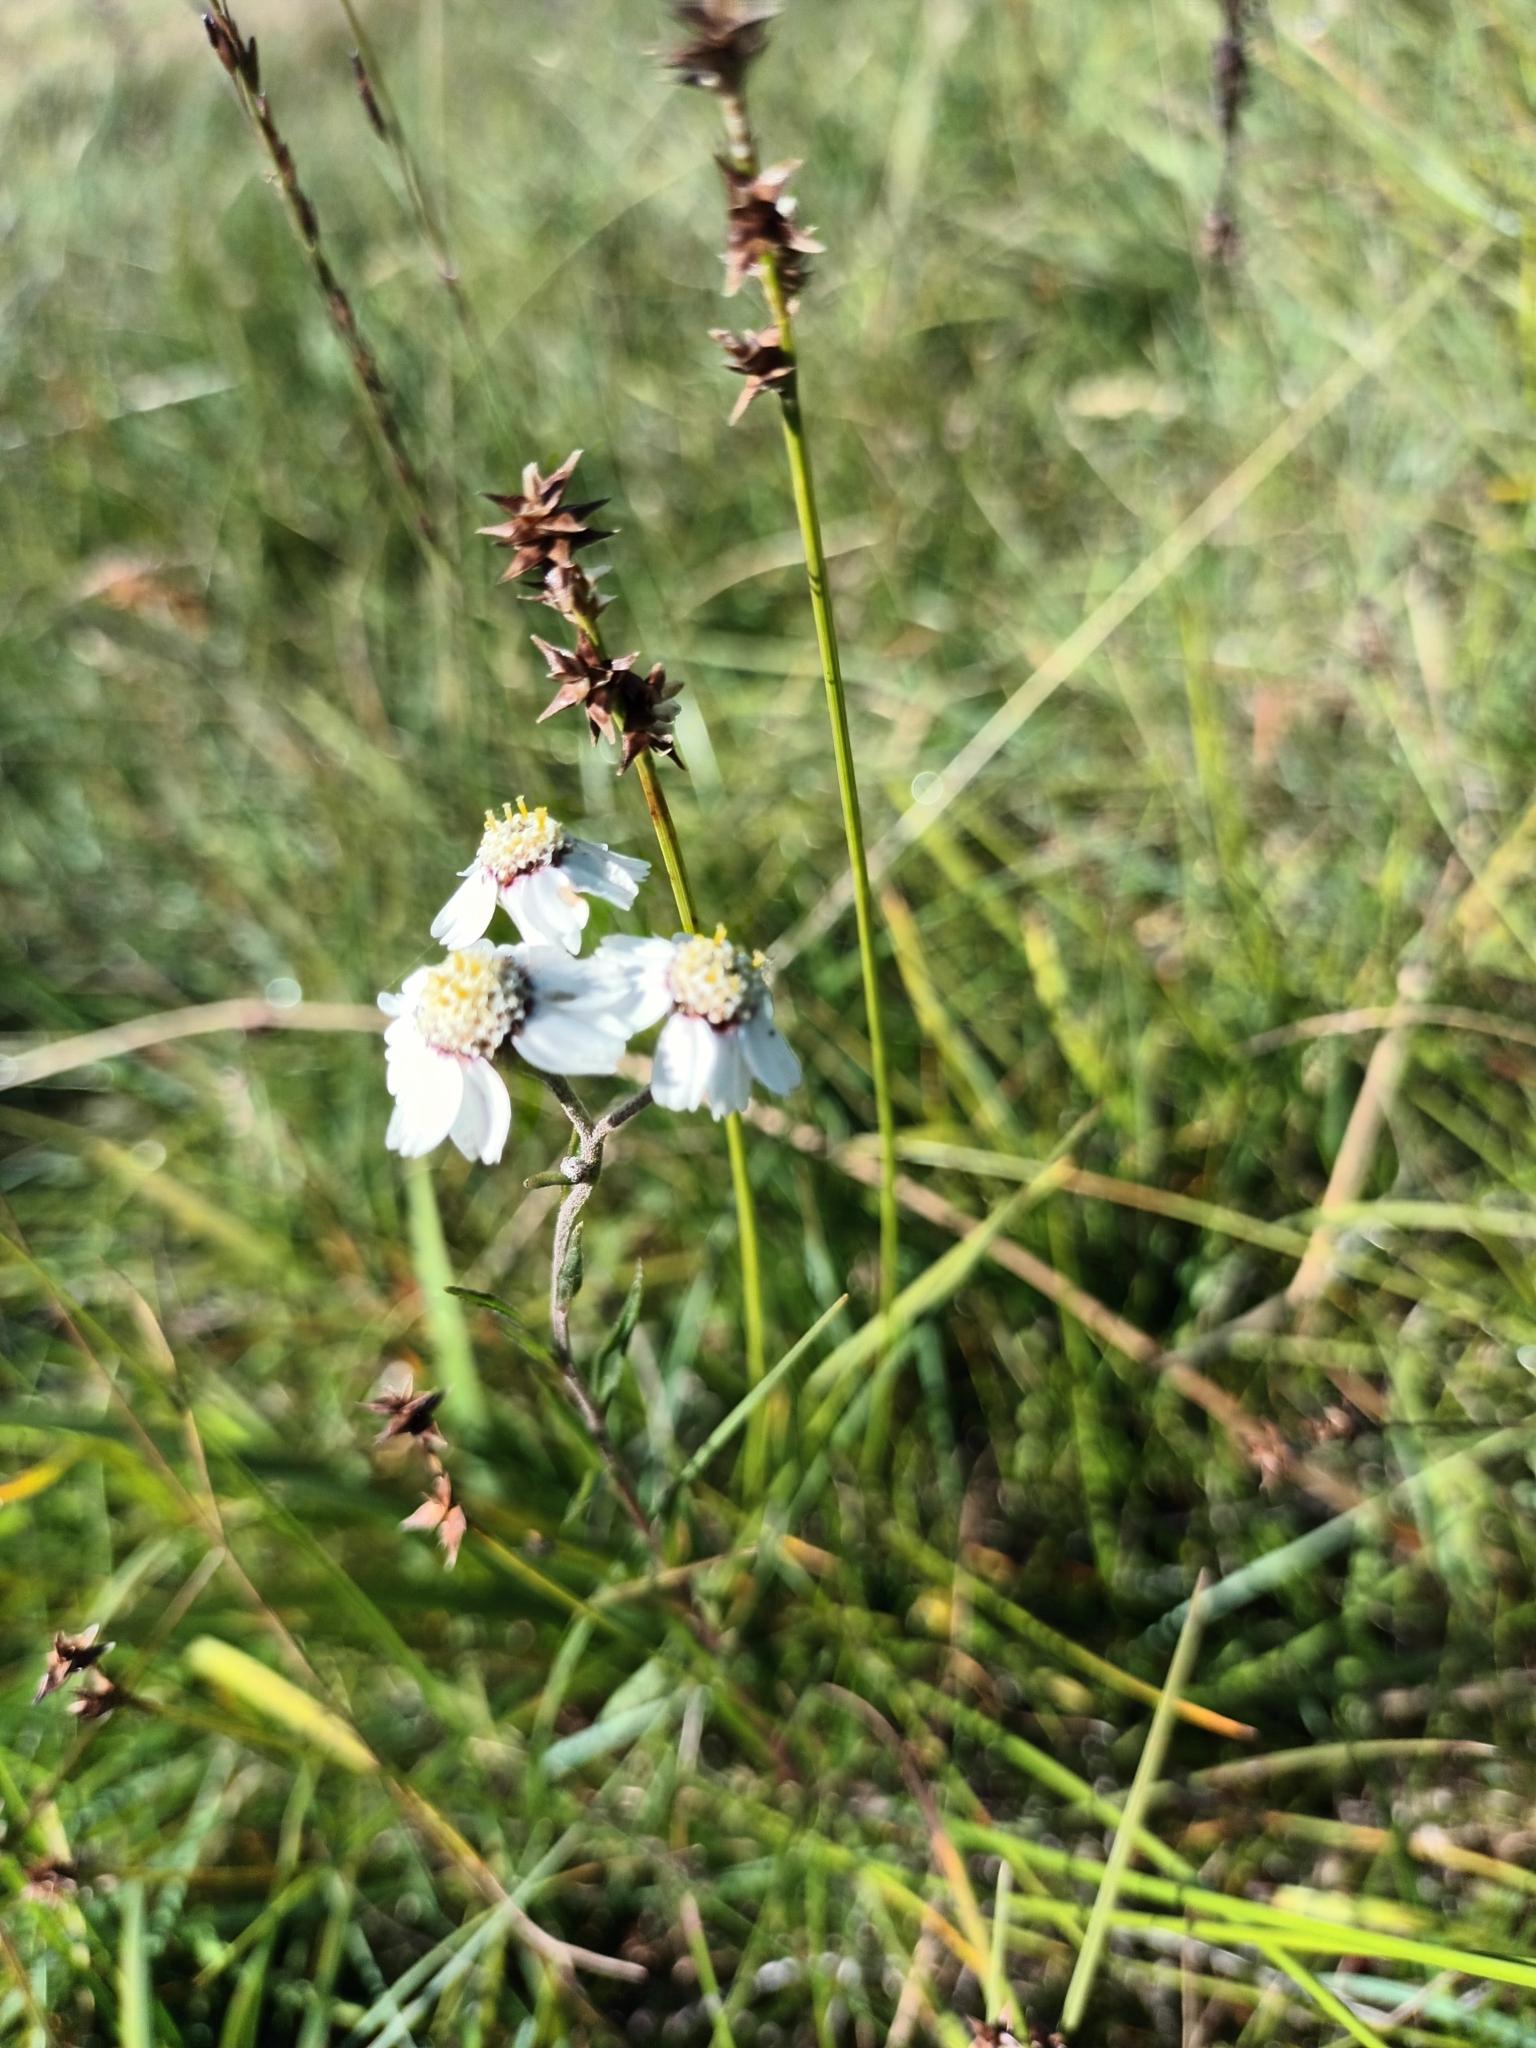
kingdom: Plantae
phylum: Tracheophyta
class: Magnoliopsida
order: Asterales
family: Asteraceae
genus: Achillea
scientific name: Achillea ptarmica
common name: Sneezeweed
